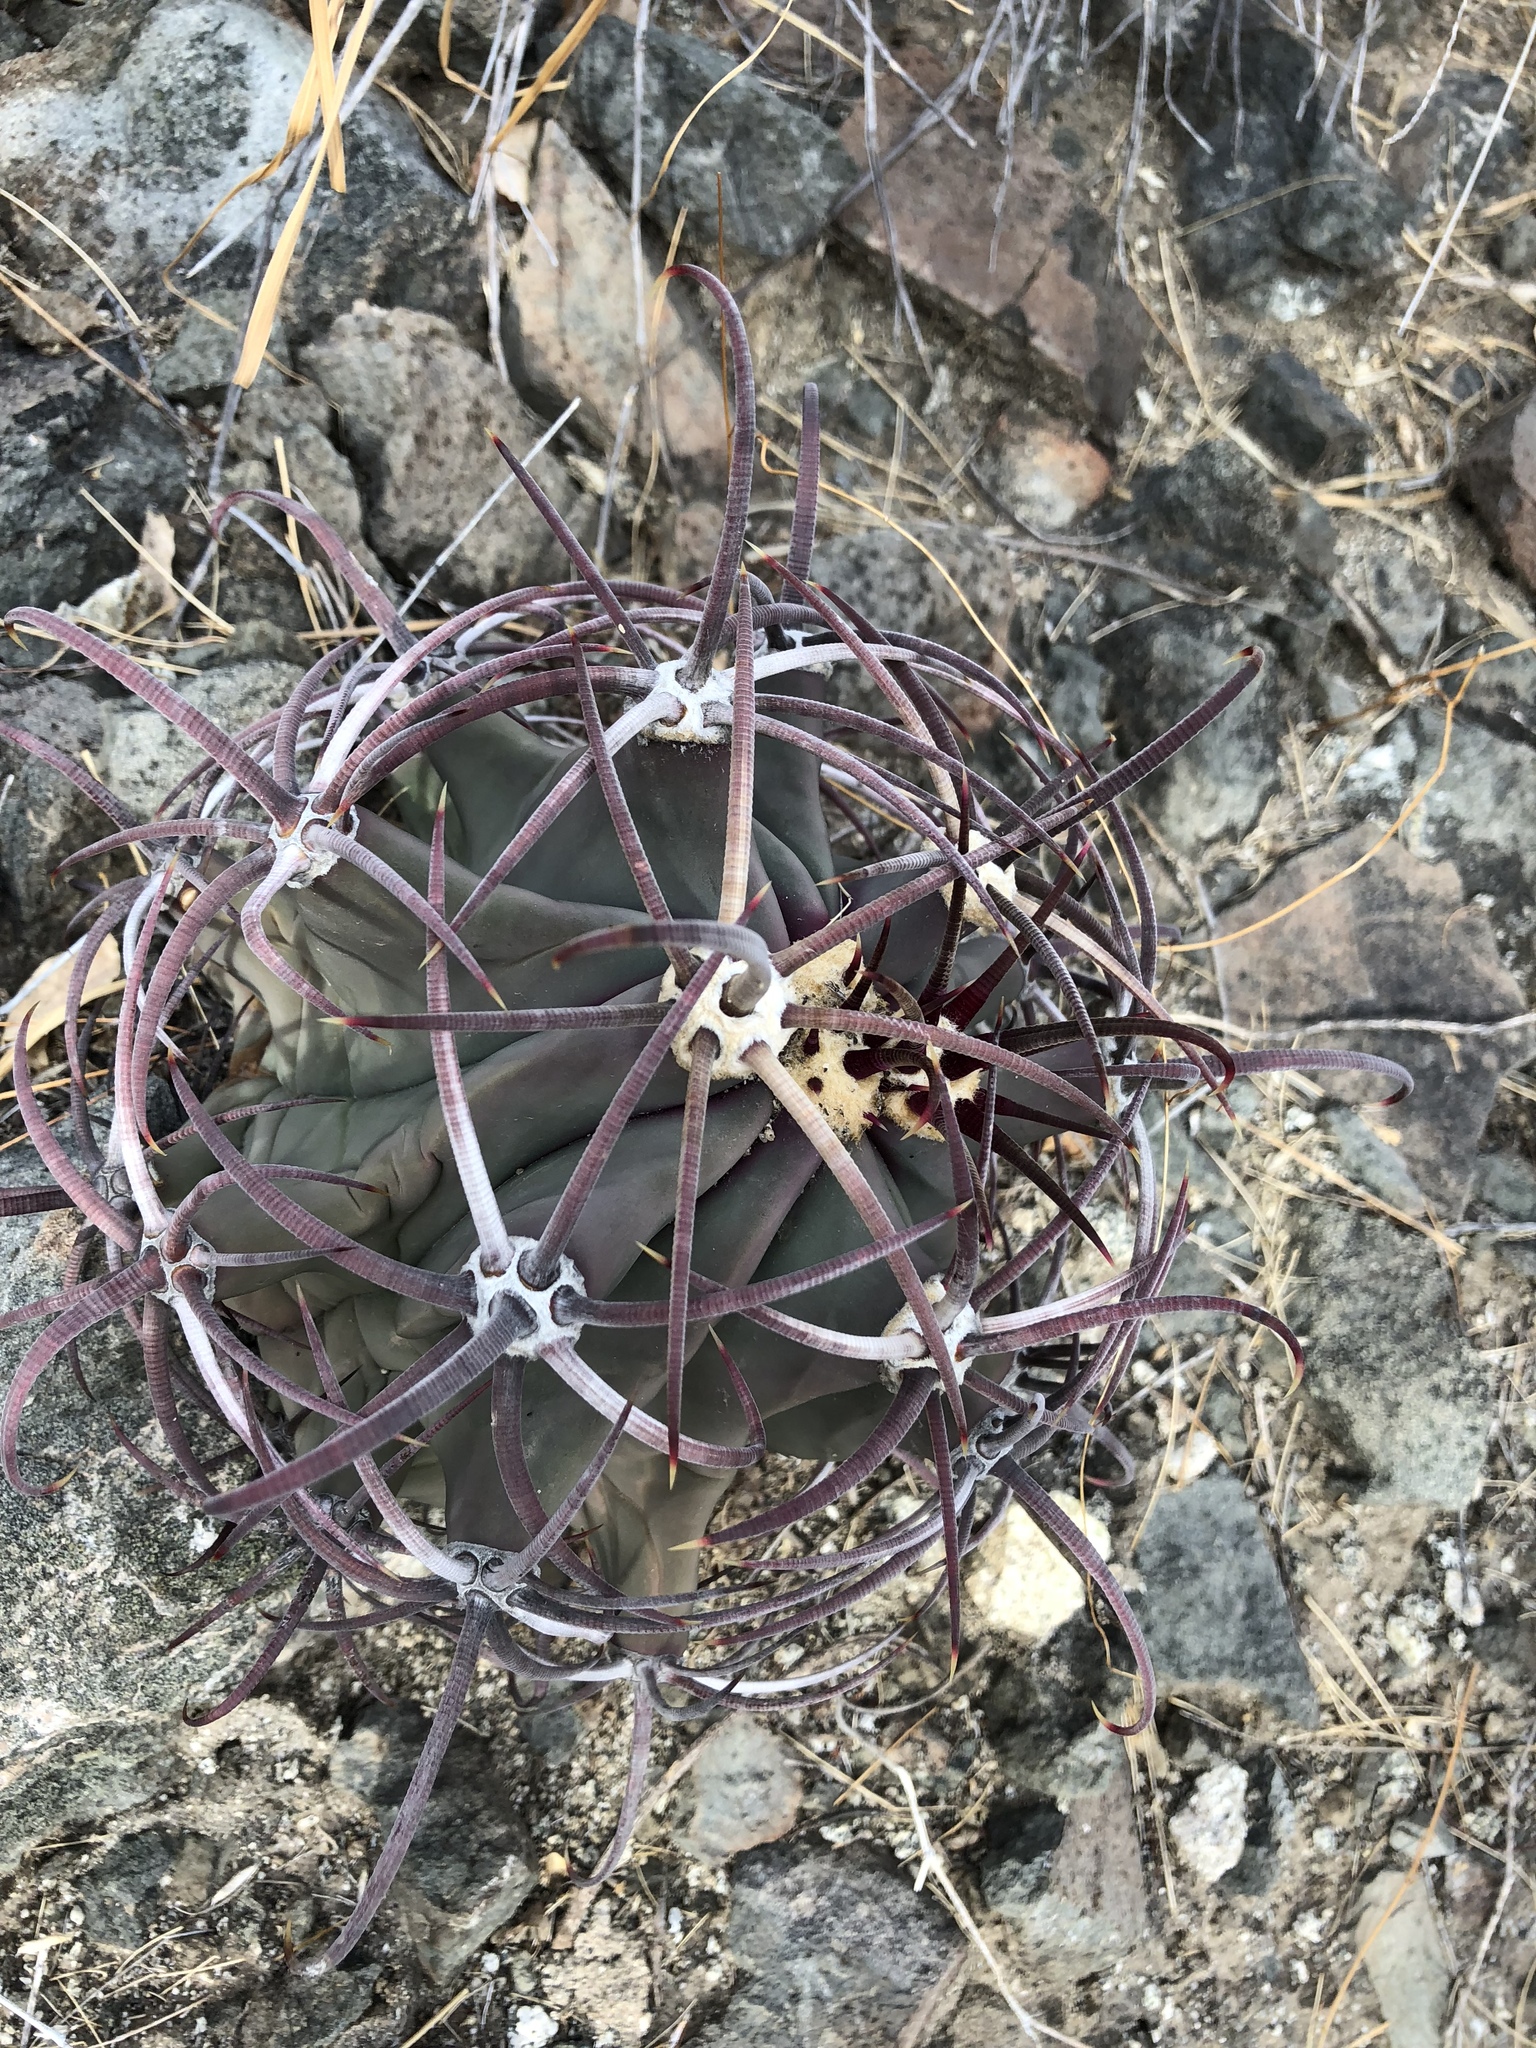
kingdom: Plantae
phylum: Tracheophyta
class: Magnoliopsida
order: Caryophyllales
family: Cactaceae
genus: Ferocactus
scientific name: Ferocactus emoryi
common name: Emory's barrel cactus
